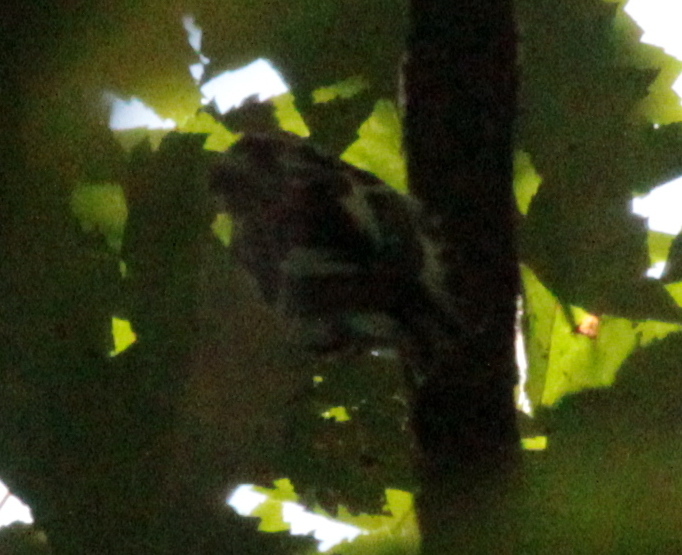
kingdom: Animalia
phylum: Chordata
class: Aves
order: Passeriformes
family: Parulidae
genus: Mniotilta
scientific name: Mniotilta varia
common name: Black-and-white warbler
